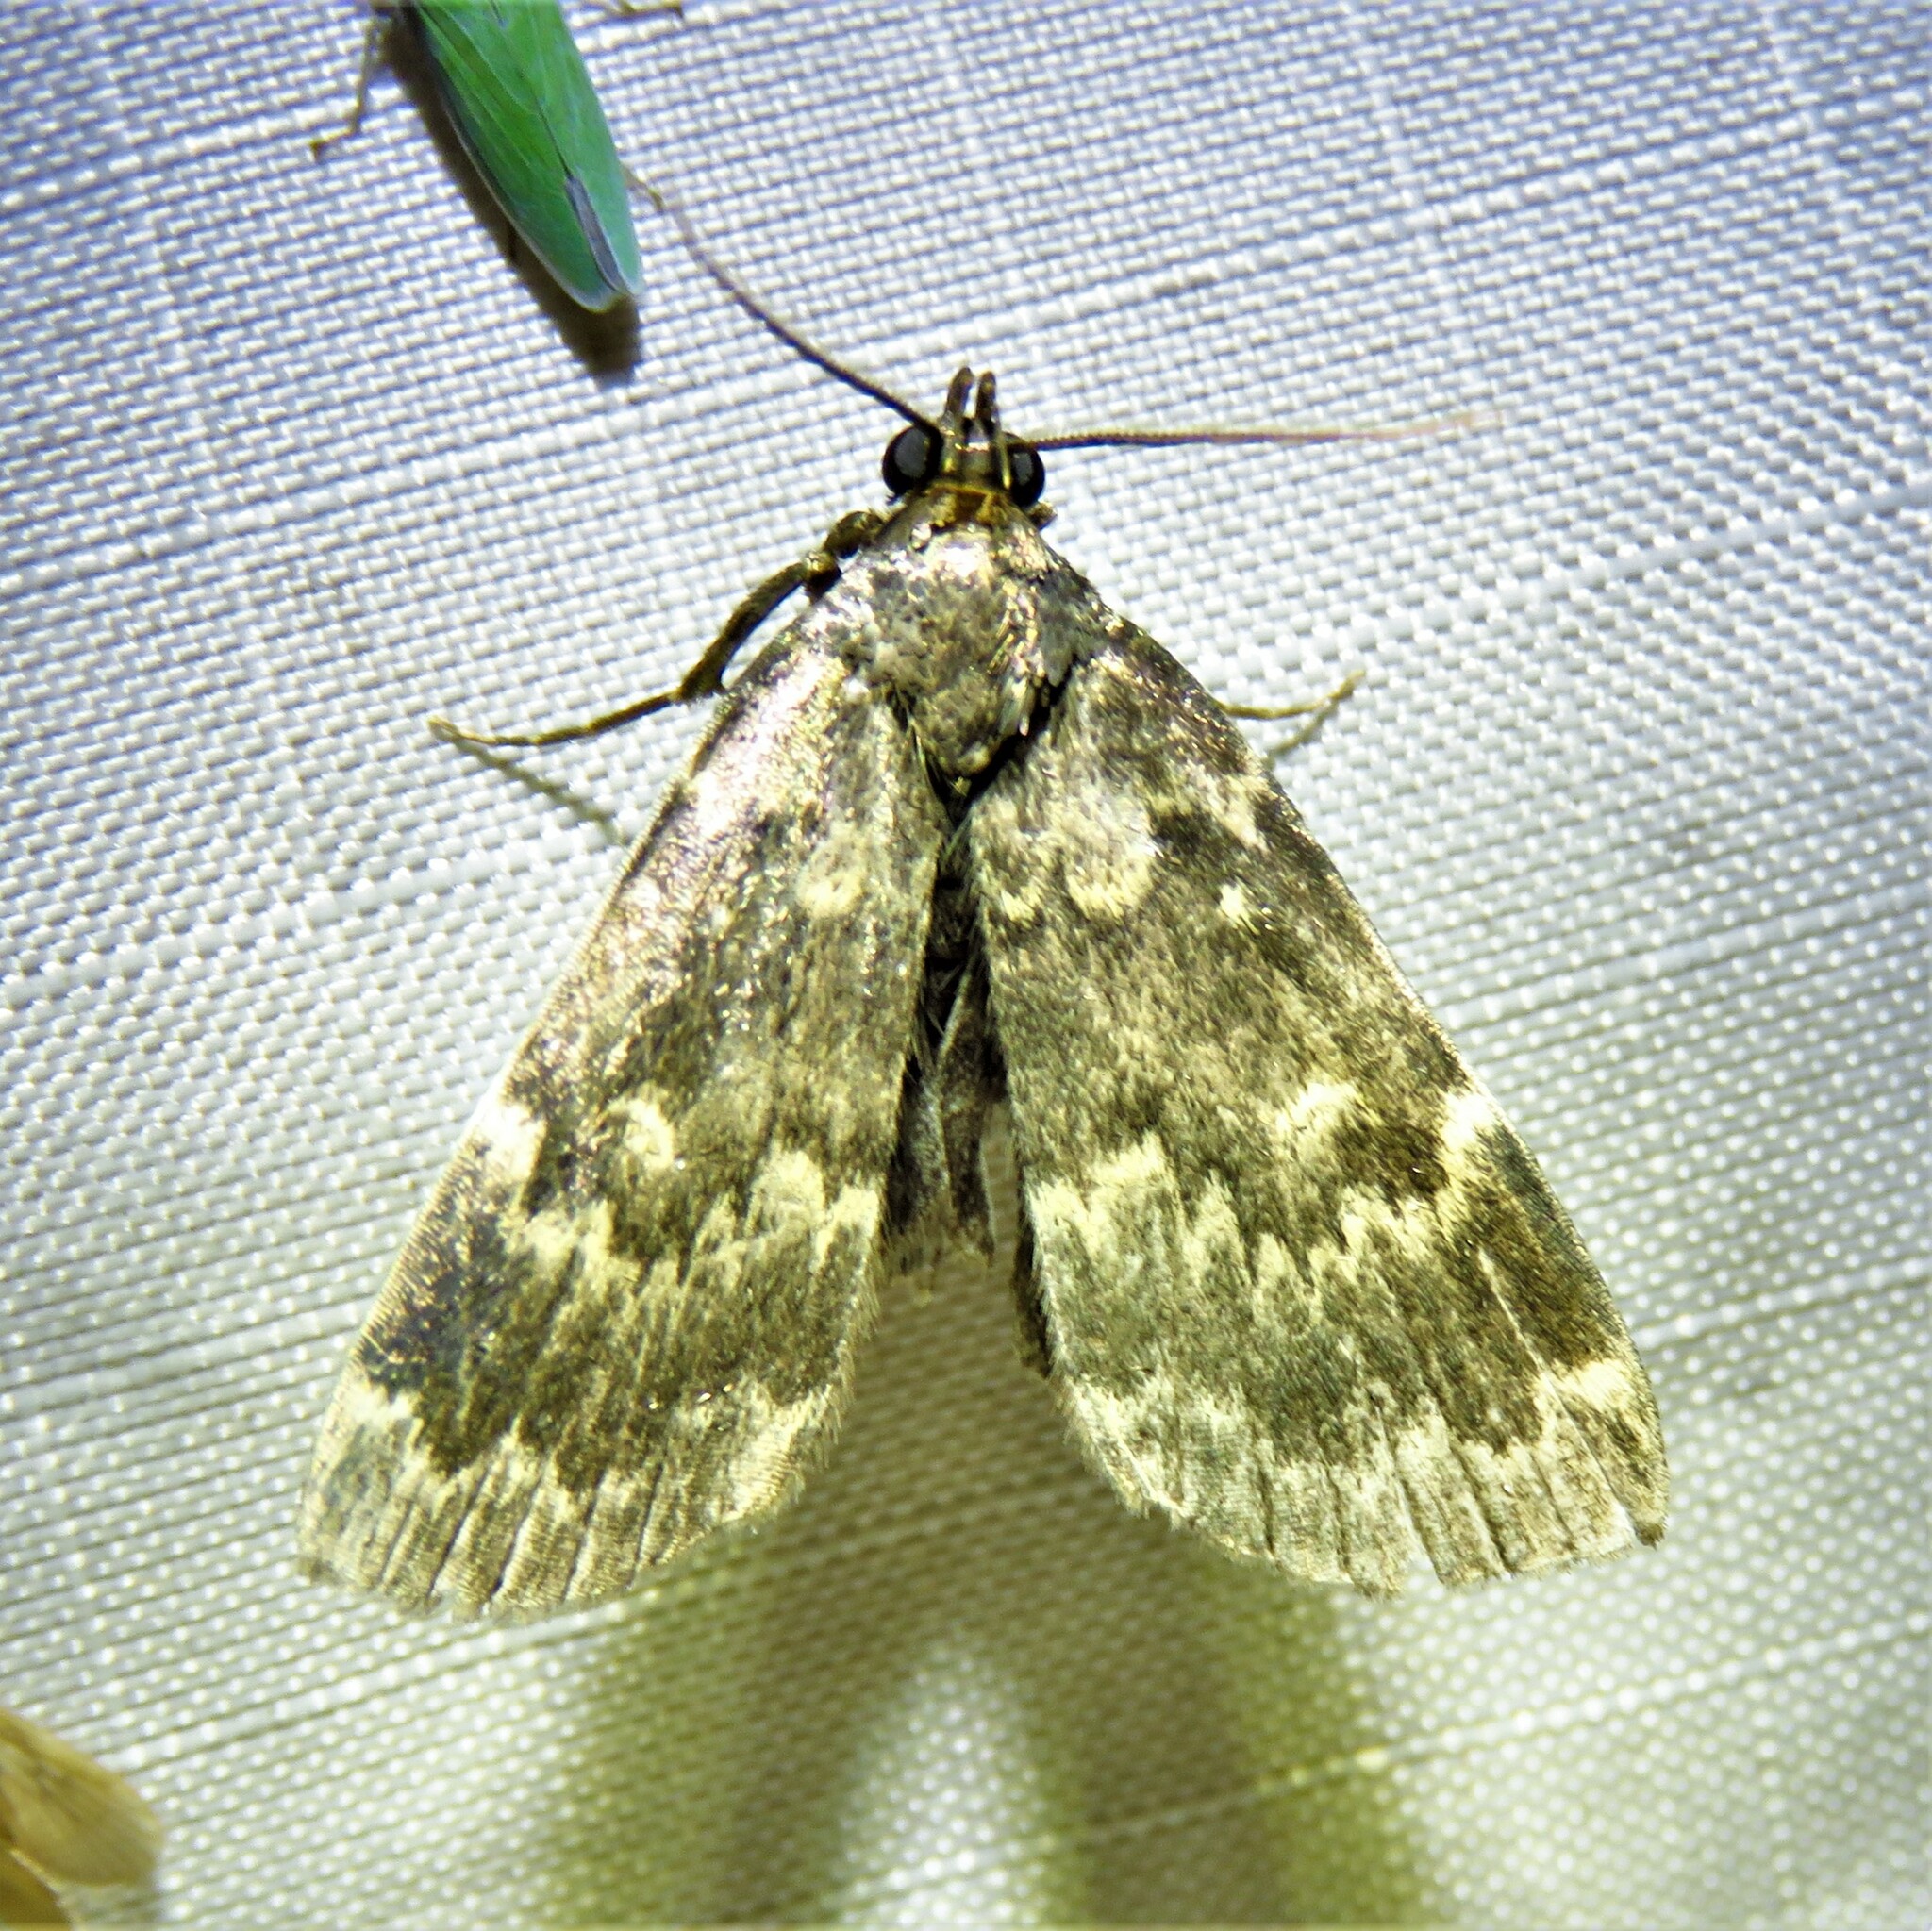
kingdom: Animalia
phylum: Arthropoda
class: Insecta
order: Lepidoptera
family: Erebidae
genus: Idia
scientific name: Idia lubricalis
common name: Twin-striped tabby
